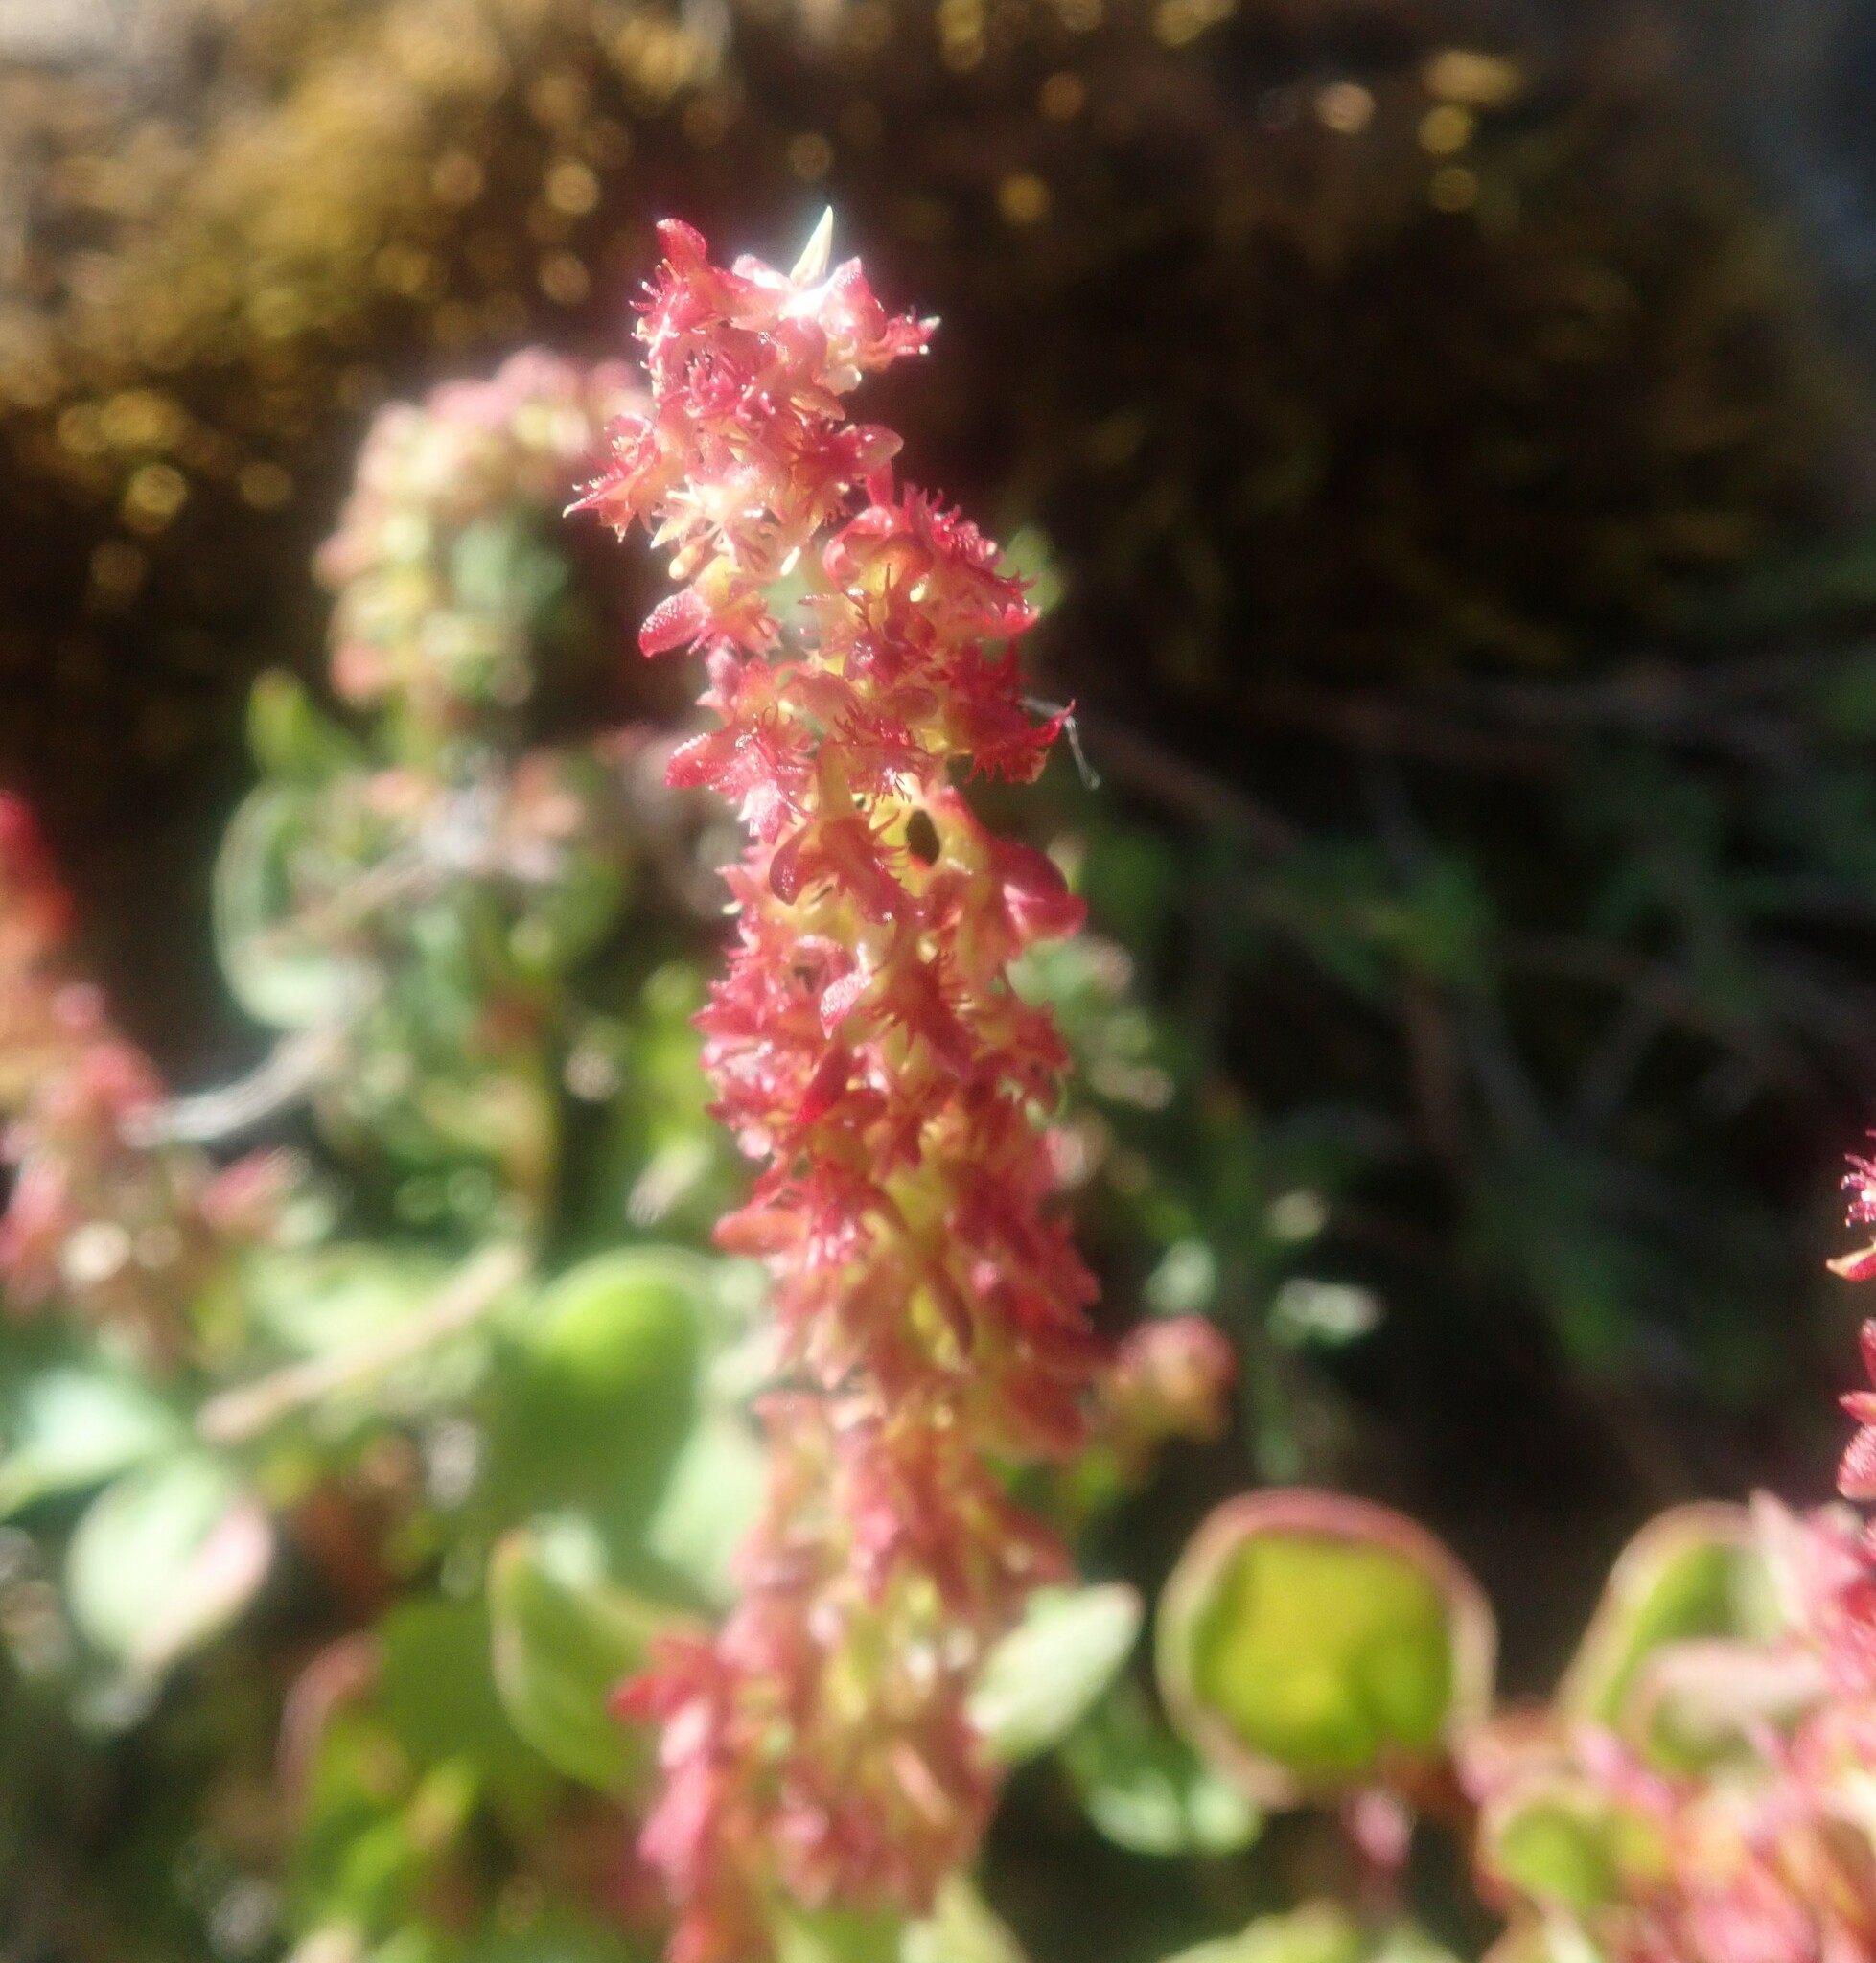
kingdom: Plantae
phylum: Tracheophyta
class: Magnoliopsida
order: Caryophyllales
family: Polygonaceae
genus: Rumex
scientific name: Rumex bucephalophorus
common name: Red dock
